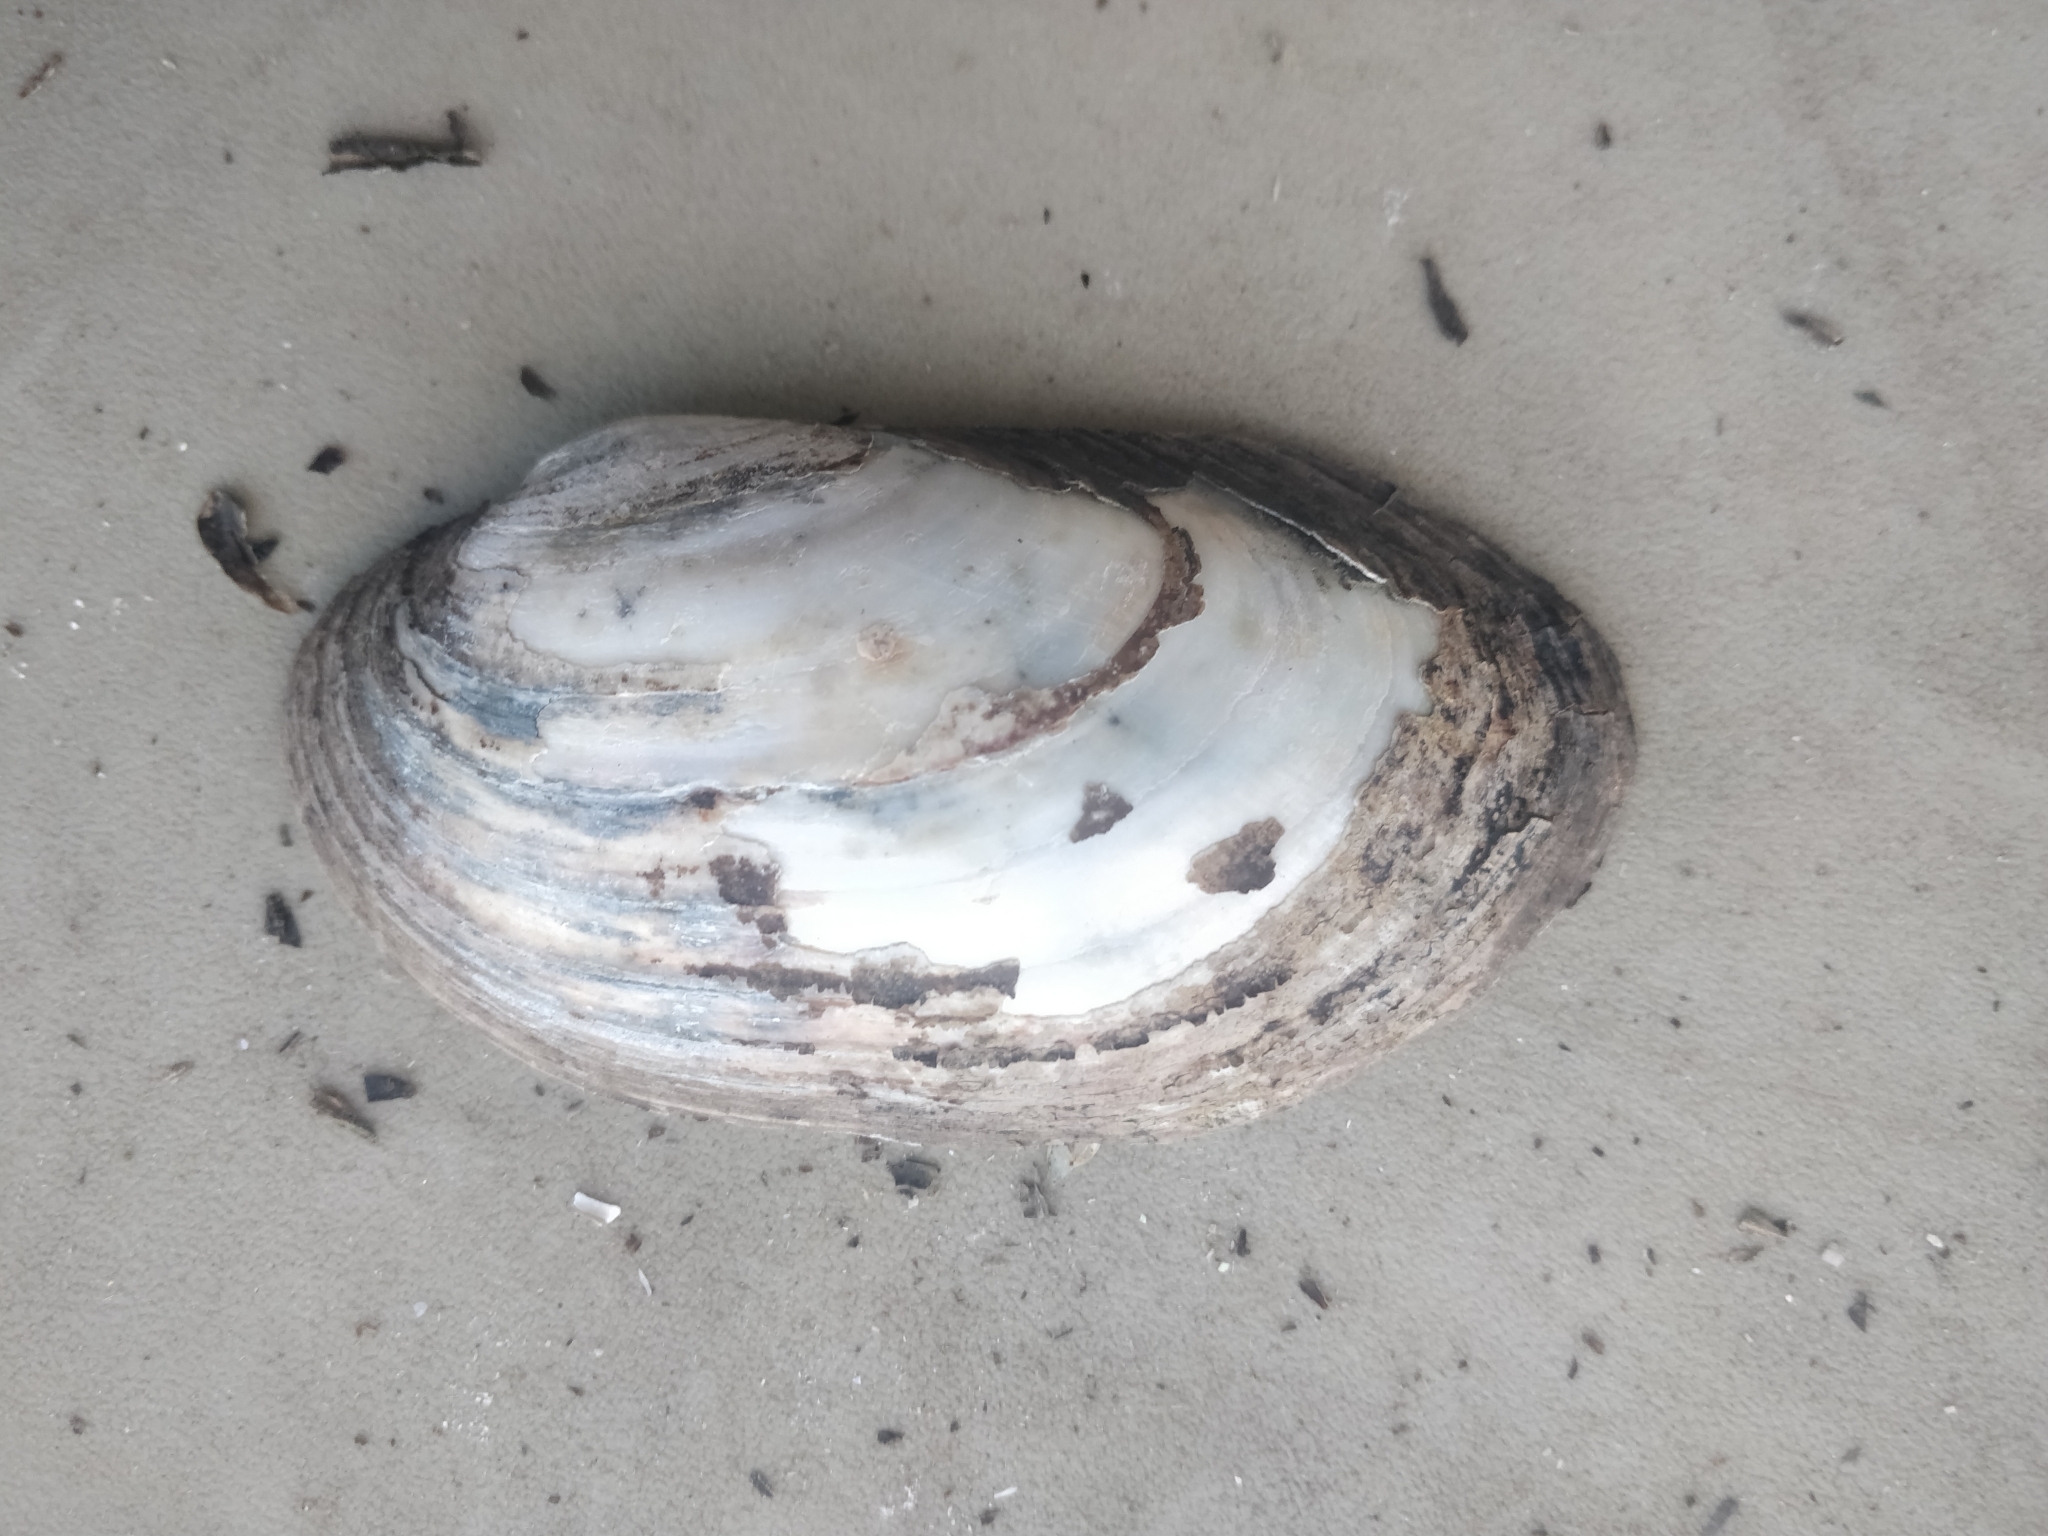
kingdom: Animalia
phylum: Mollusca
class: Bivalvia
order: Unionida
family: Unionidae
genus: Lampsilis
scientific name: Lampsilis siliquoidea
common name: Fatmucket
